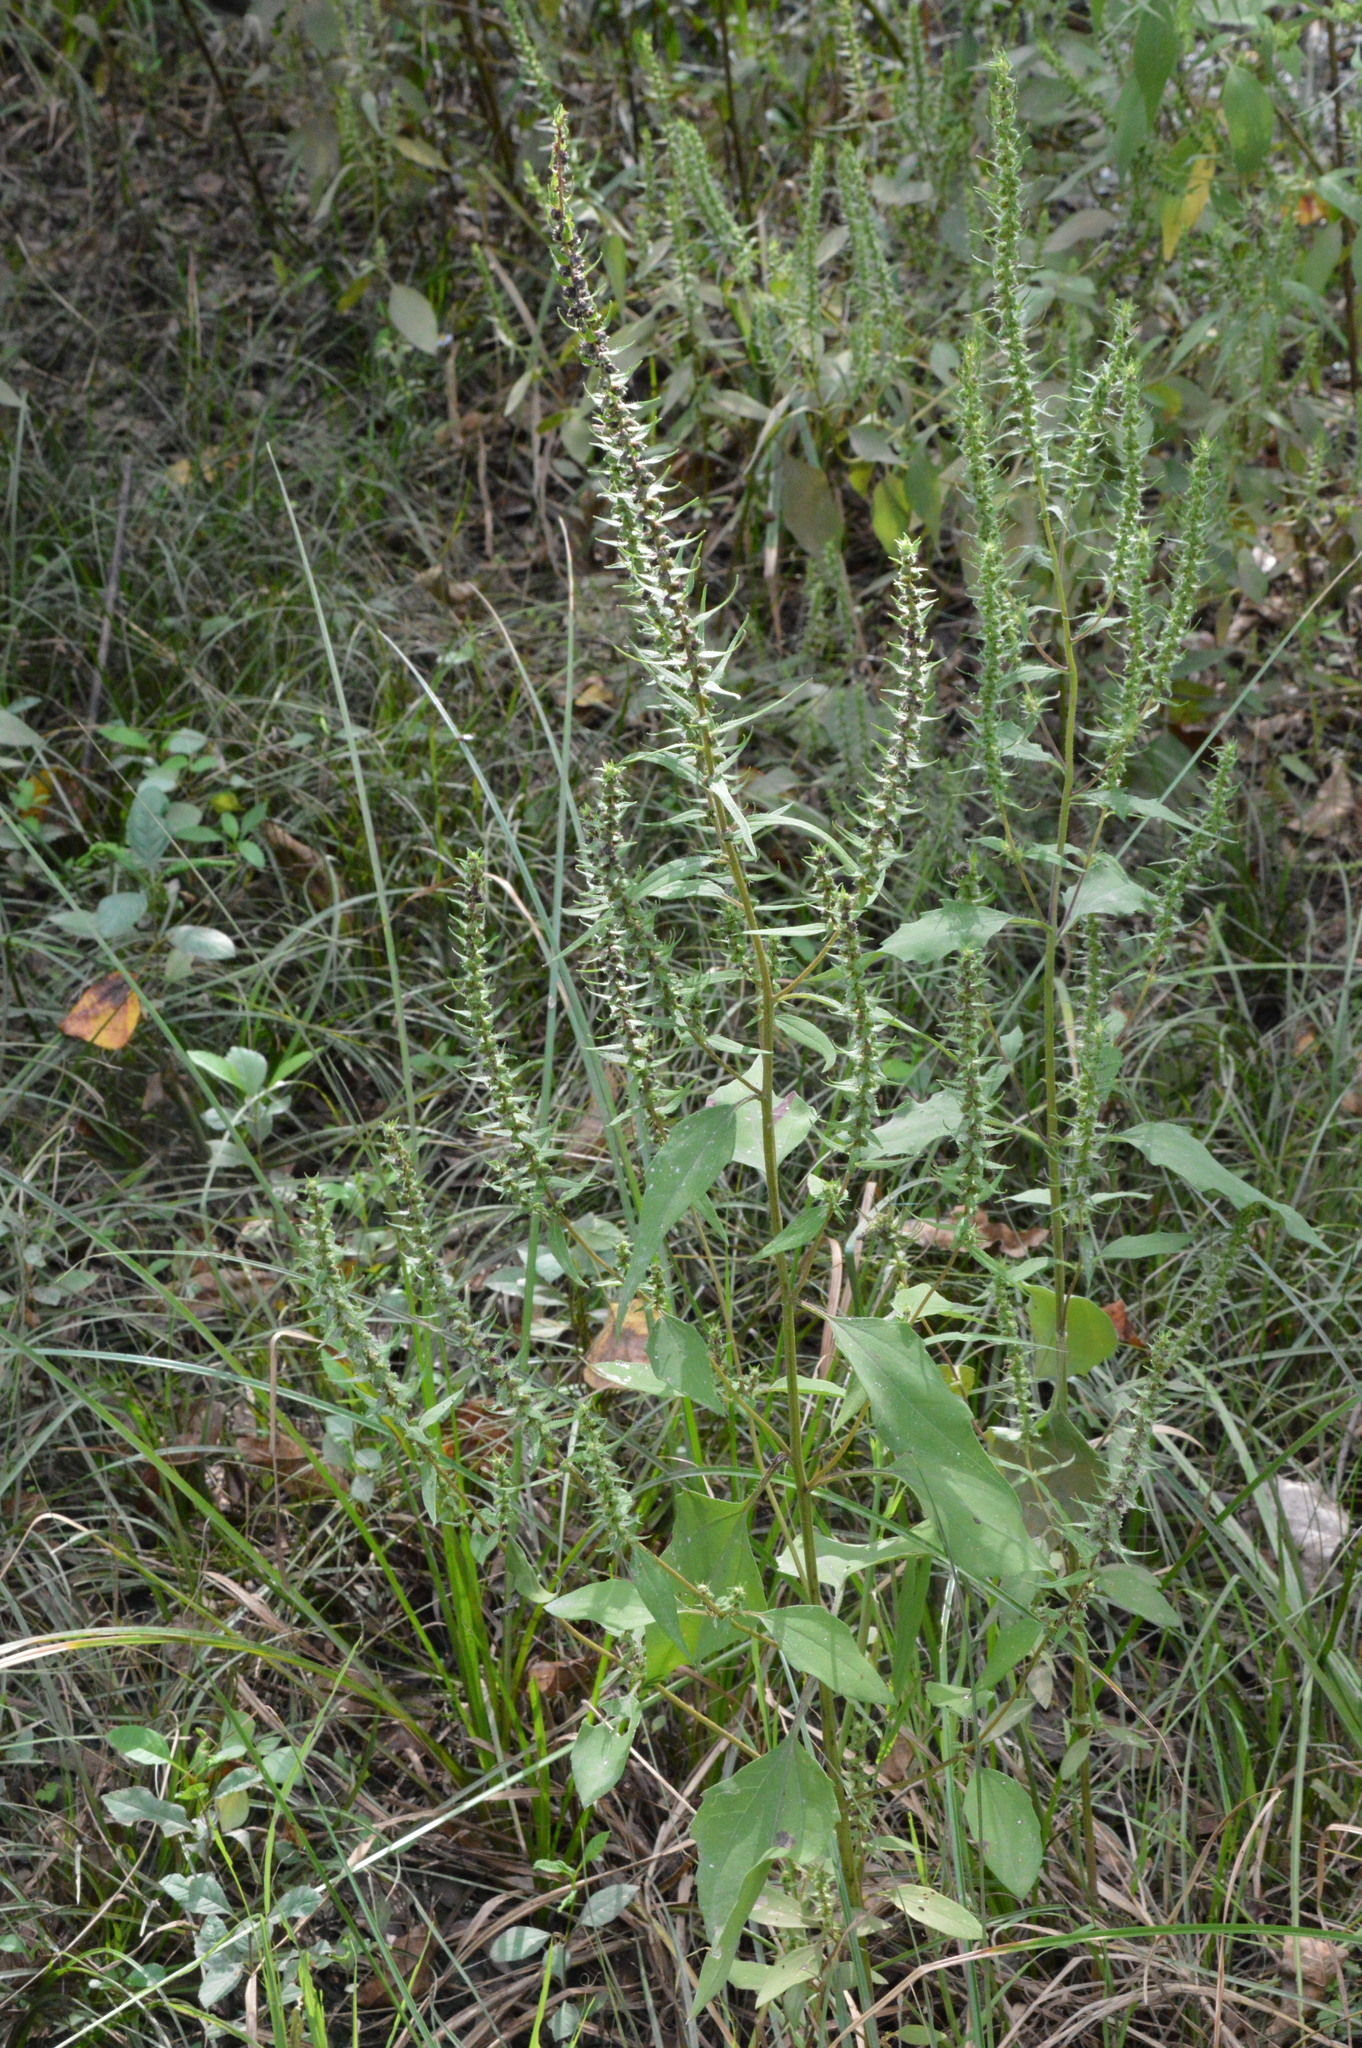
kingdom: Plantae
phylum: Tracheophyta
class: Magnoliopsida
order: Asterales
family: Asteraceae
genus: Iva
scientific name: Iva annua
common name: Marsh-elder
